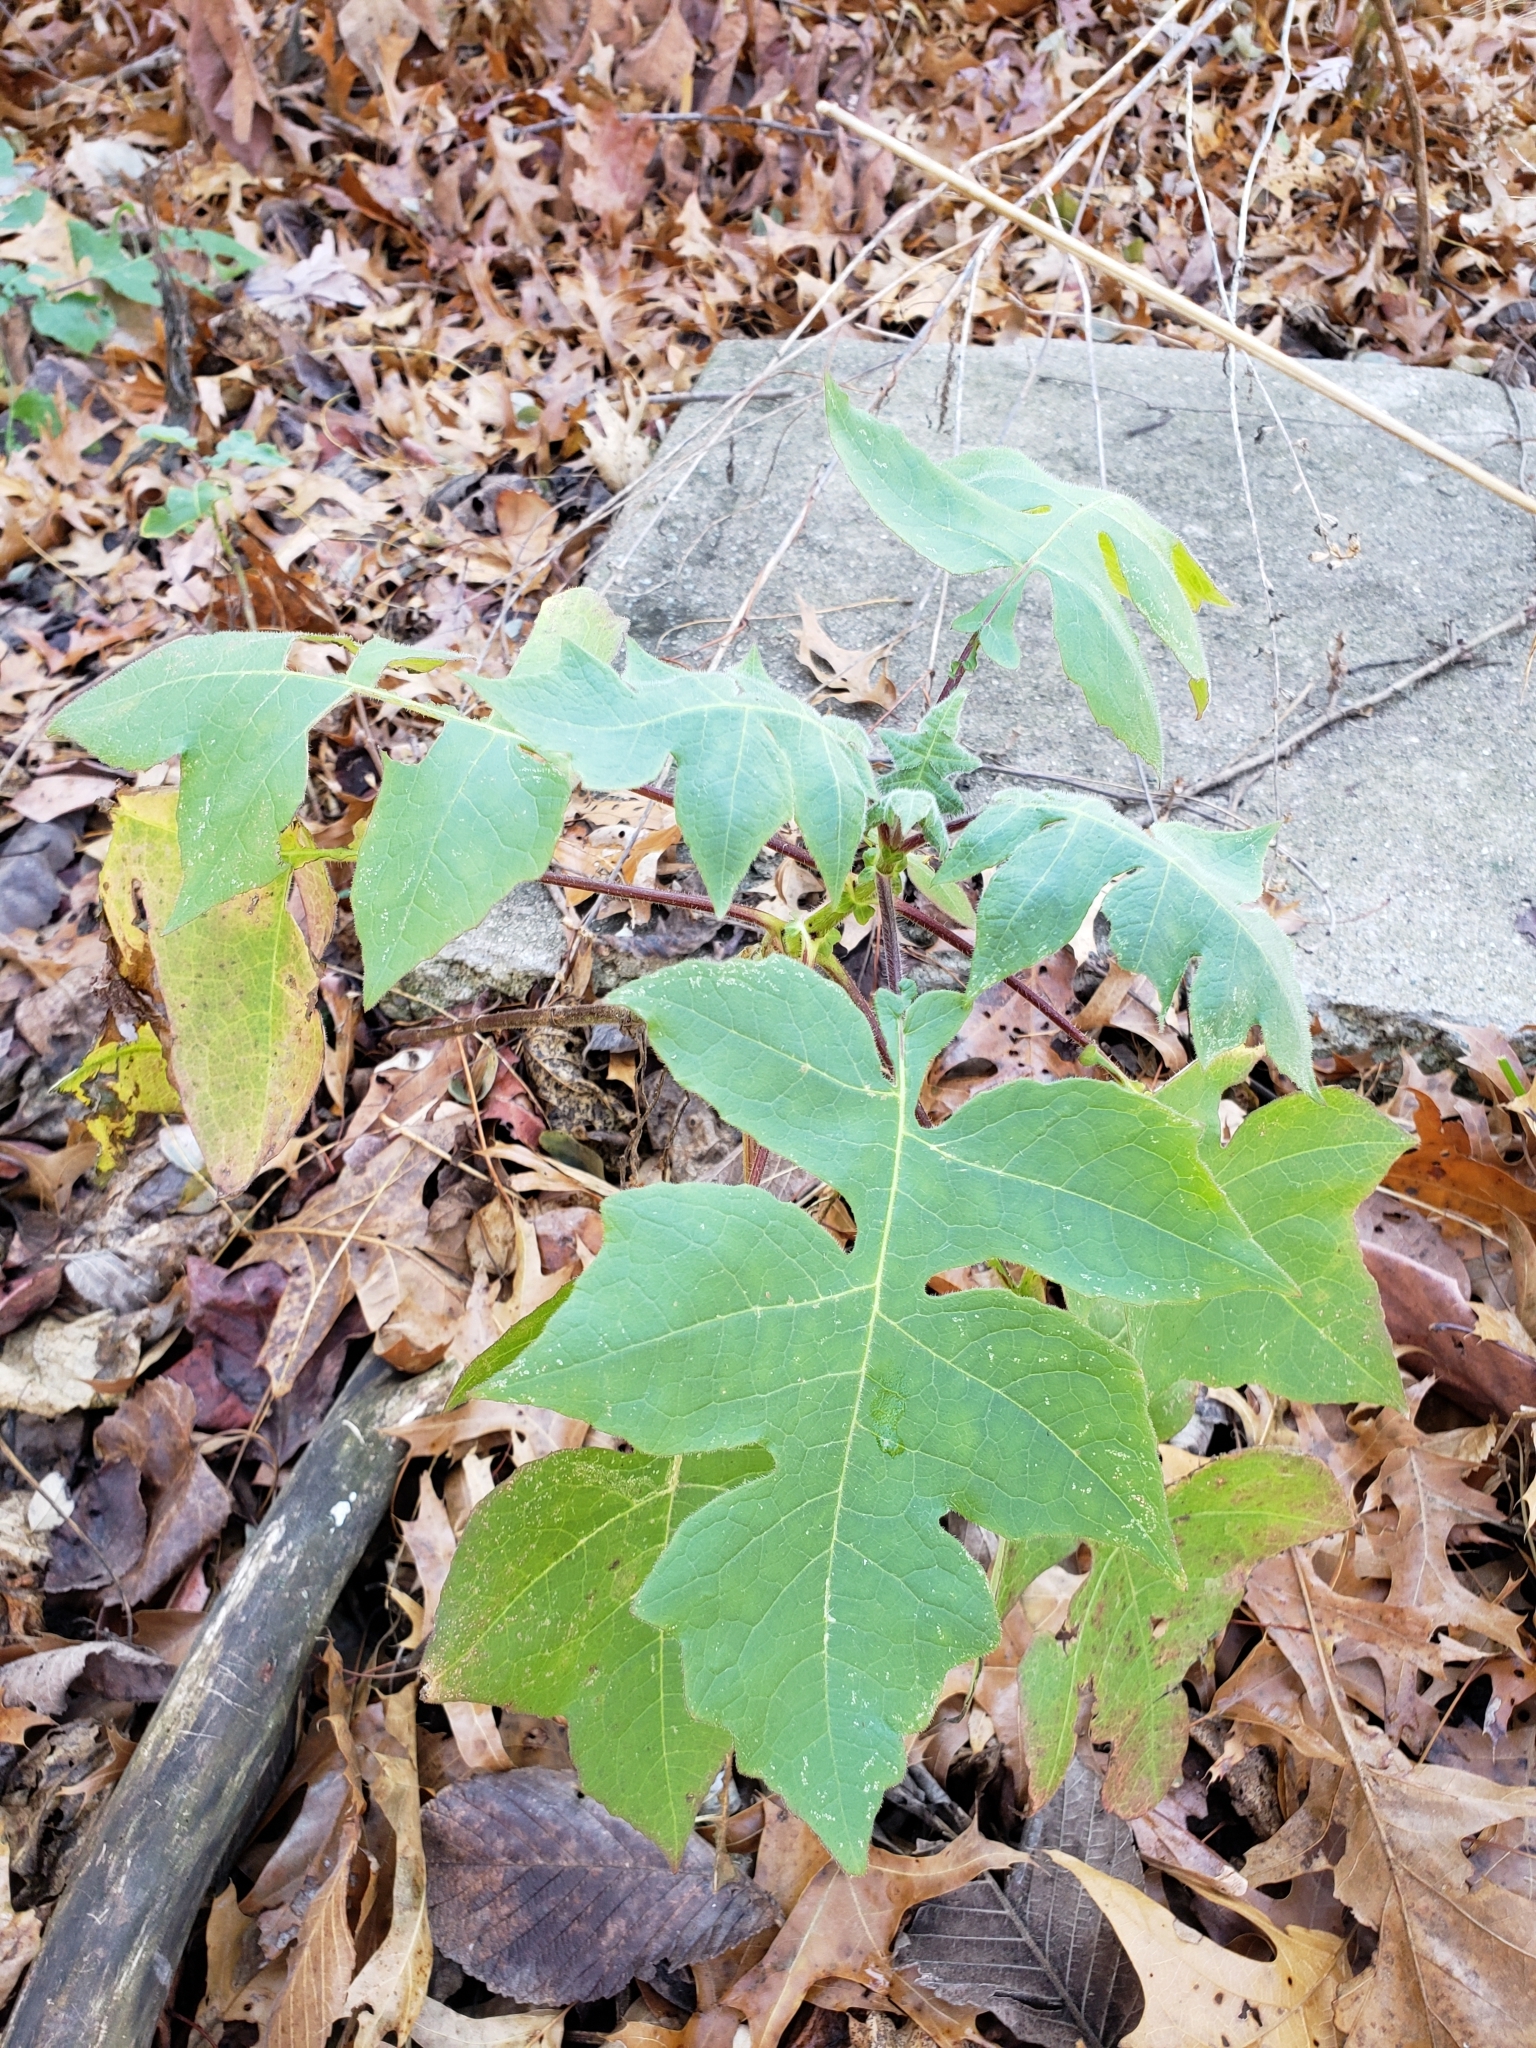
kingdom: Plantae
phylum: Tracheophyta
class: Magnoliopsida
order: Asterales
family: Asteraceae
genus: Polymnia
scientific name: Polymnia canadensis
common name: Pale-flowered leafcup
